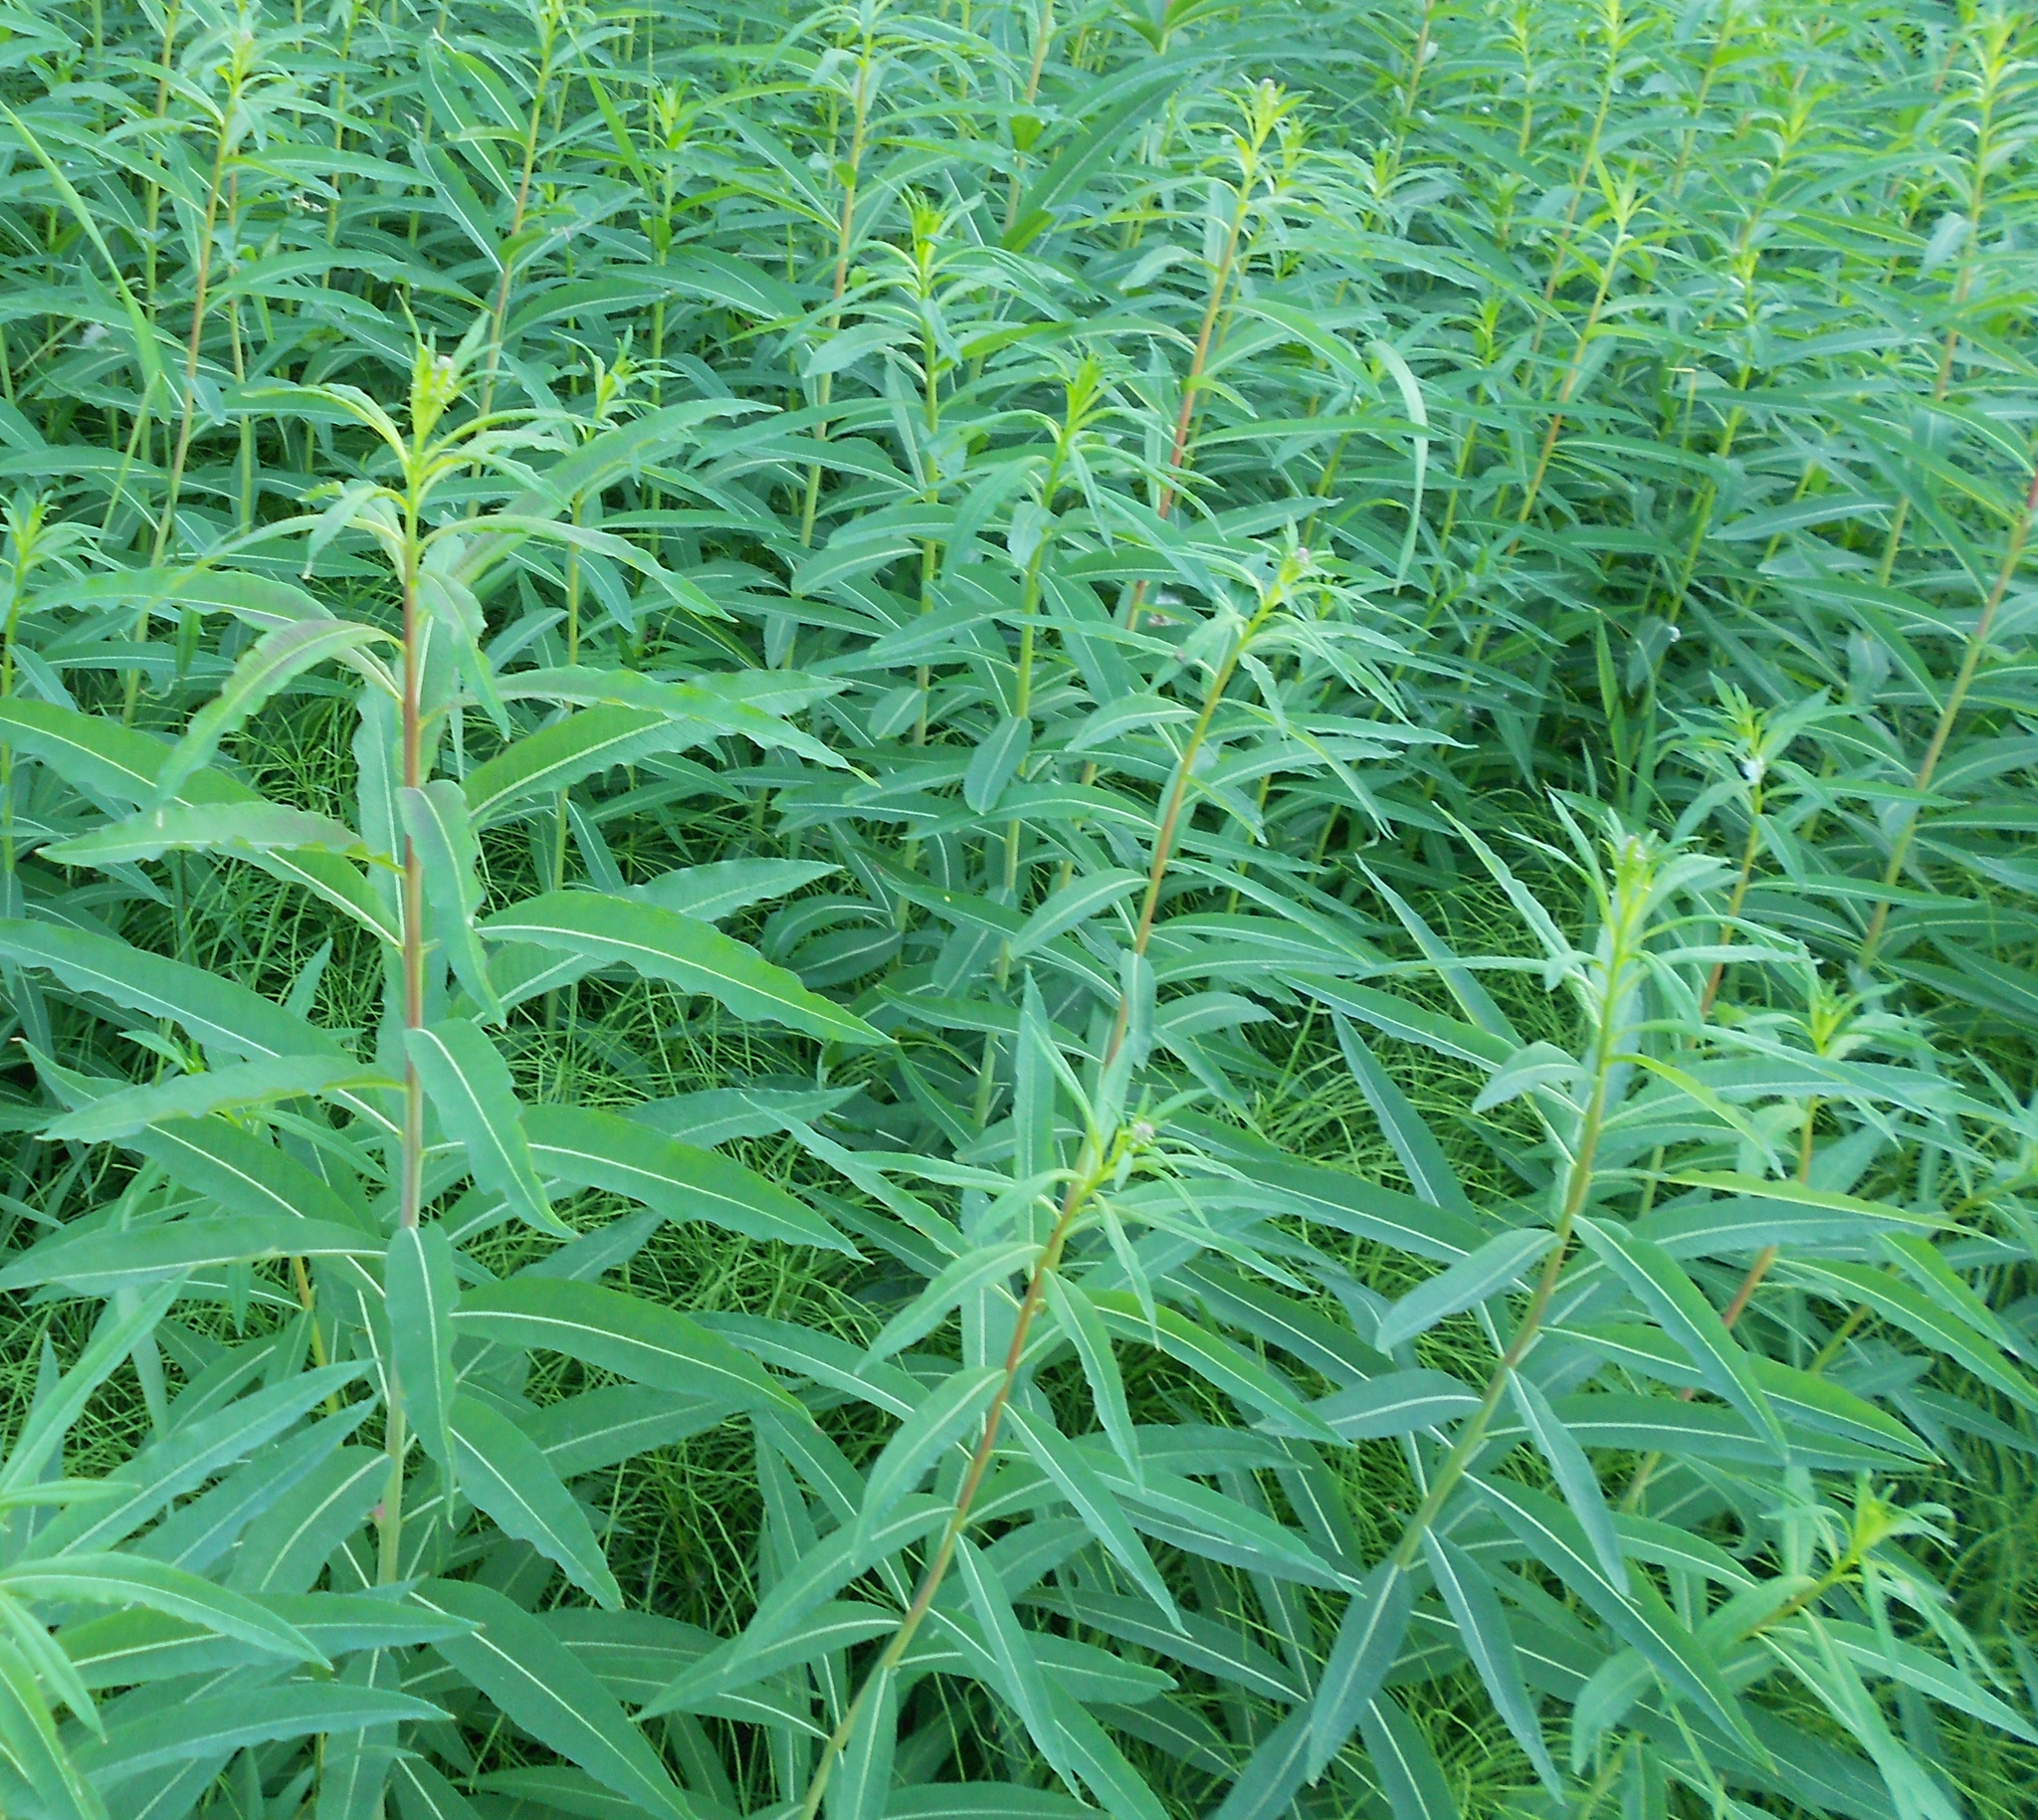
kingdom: Plantae
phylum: Tracheophyta
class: Magnoliopsida
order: Myrtales
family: Onagraceae
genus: Chamaenerion
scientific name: Chamaenerion angustifolium
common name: Fireweed
